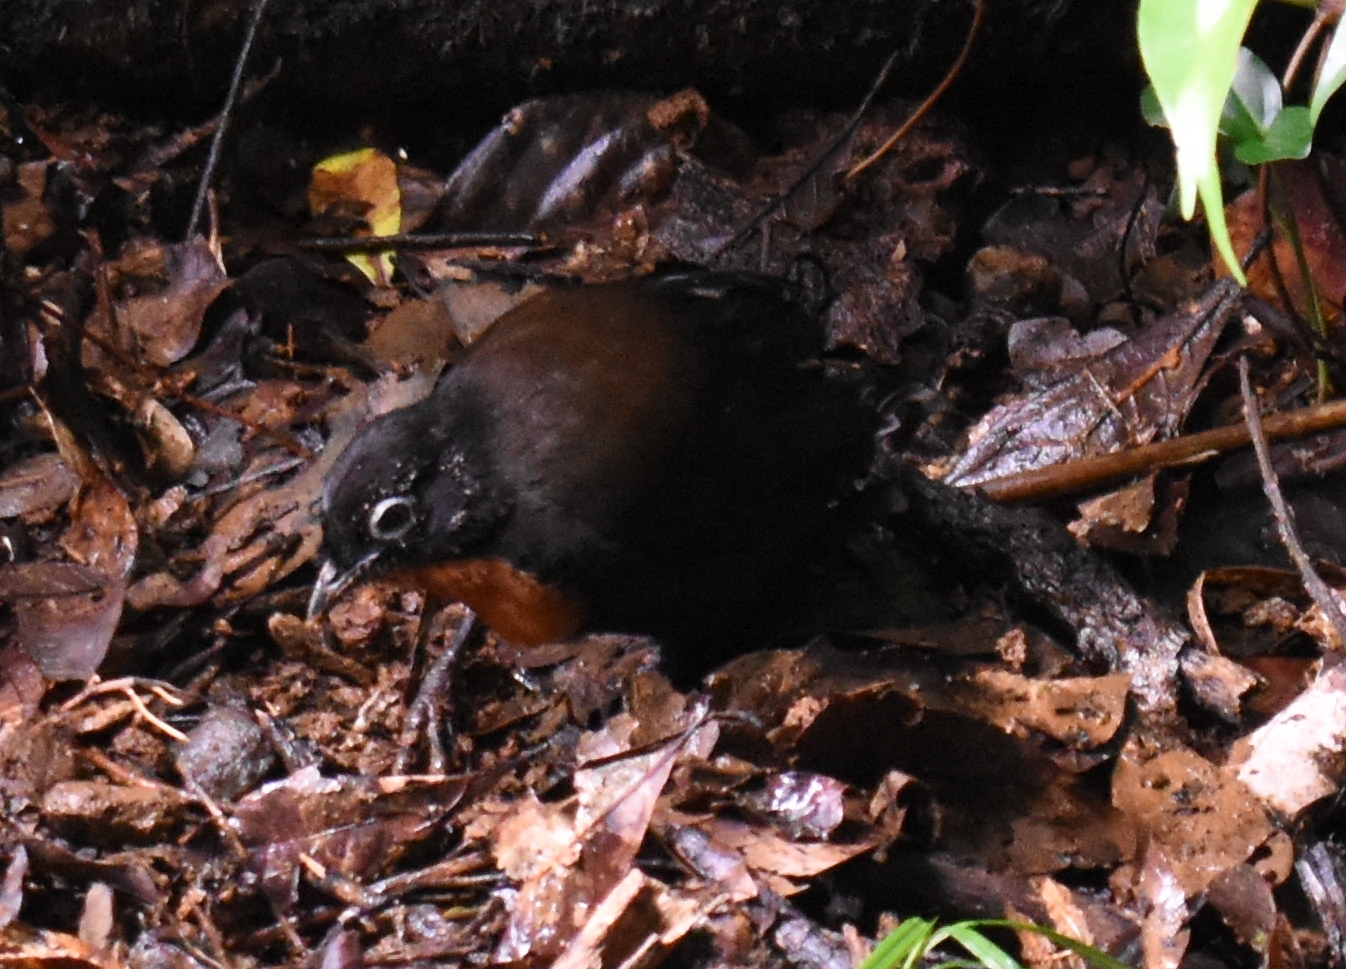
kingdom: Animalia
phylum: Chordata
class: Aves
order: Passeriformes
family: Orthonychidae
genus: Orthonyx
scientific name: Orthonyx spaldingii
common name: Chowchilla
